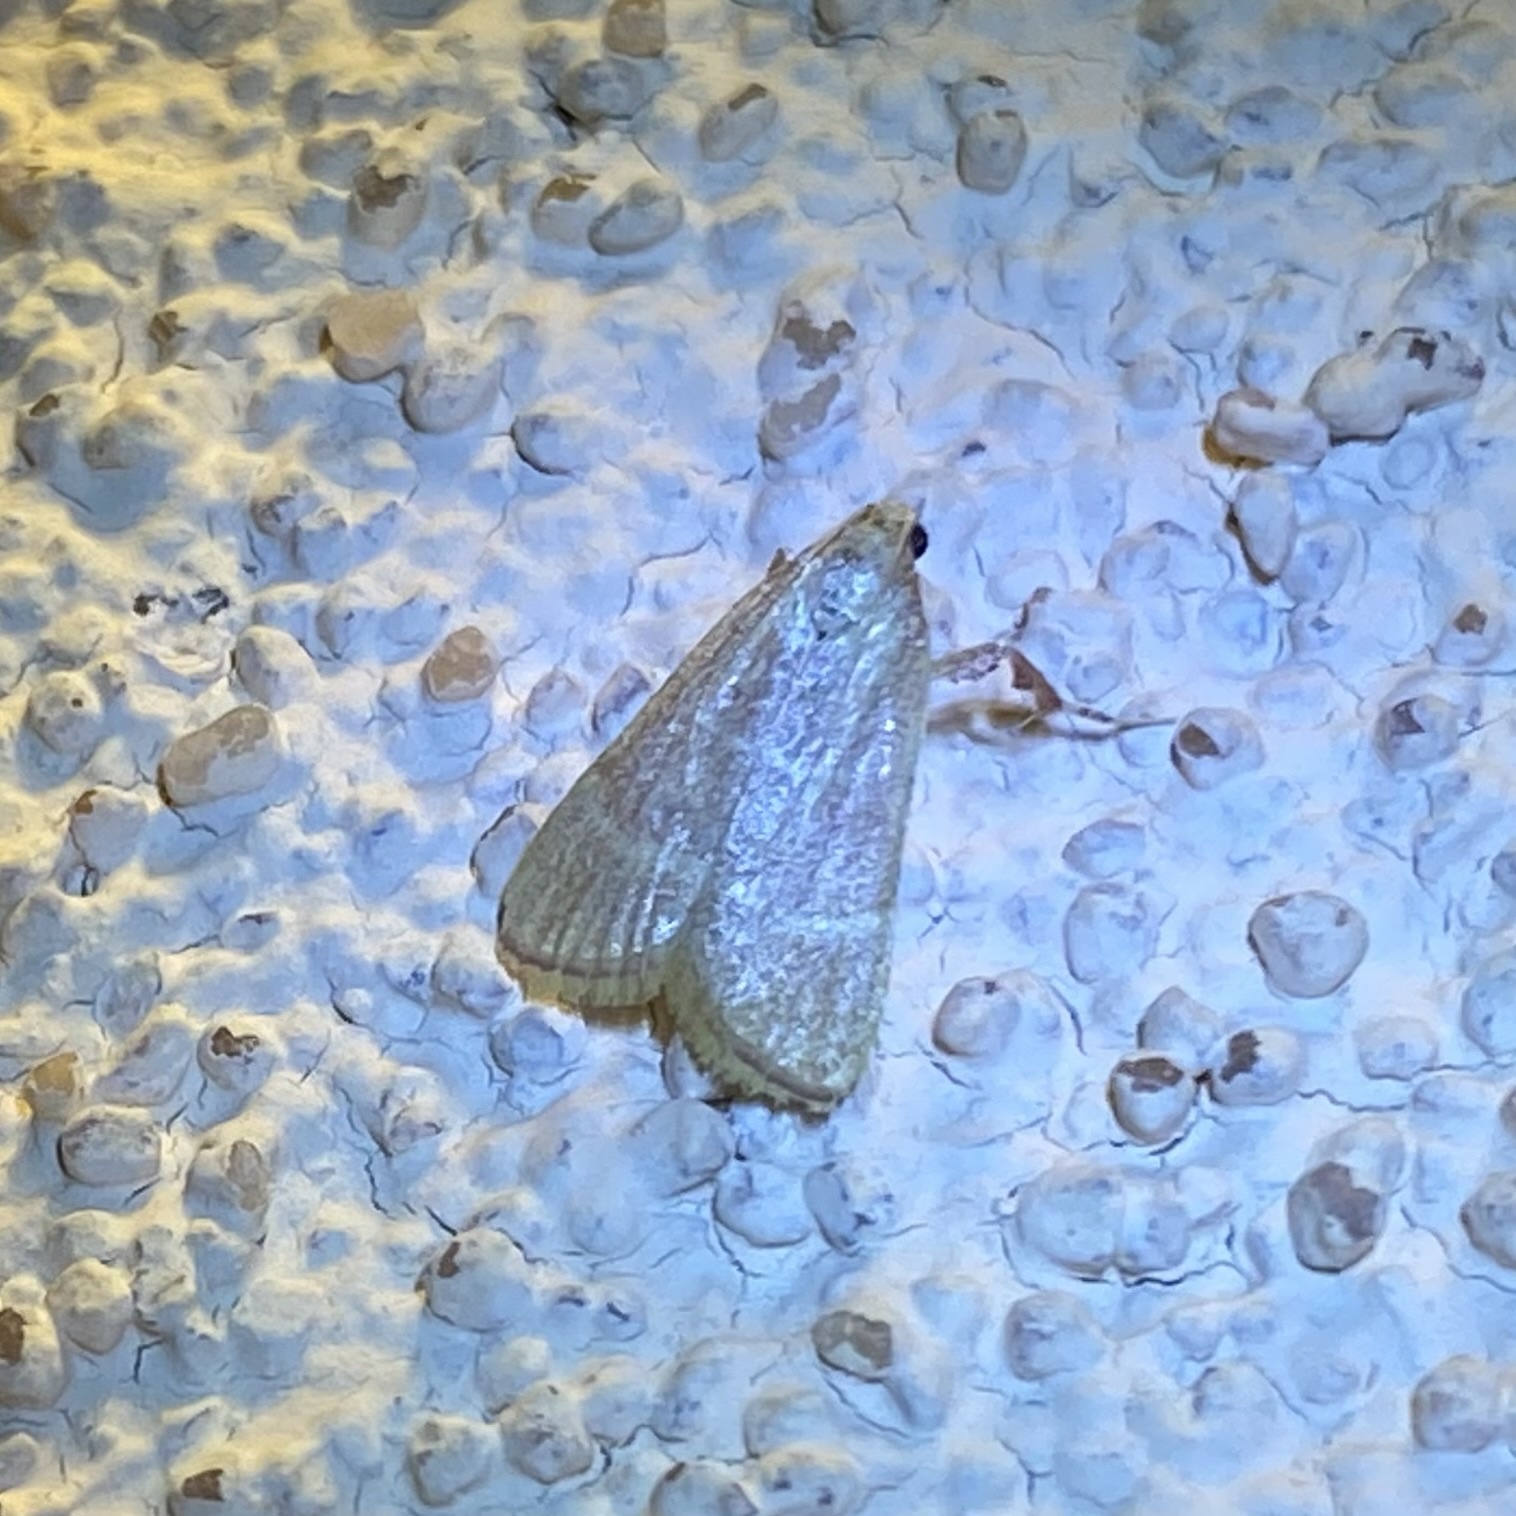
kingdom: Animalia
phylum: Arthropoda
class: Insecta
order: Lepidoptera
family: Pyralidae
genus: Parachma
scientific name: Parachma ochracealis
